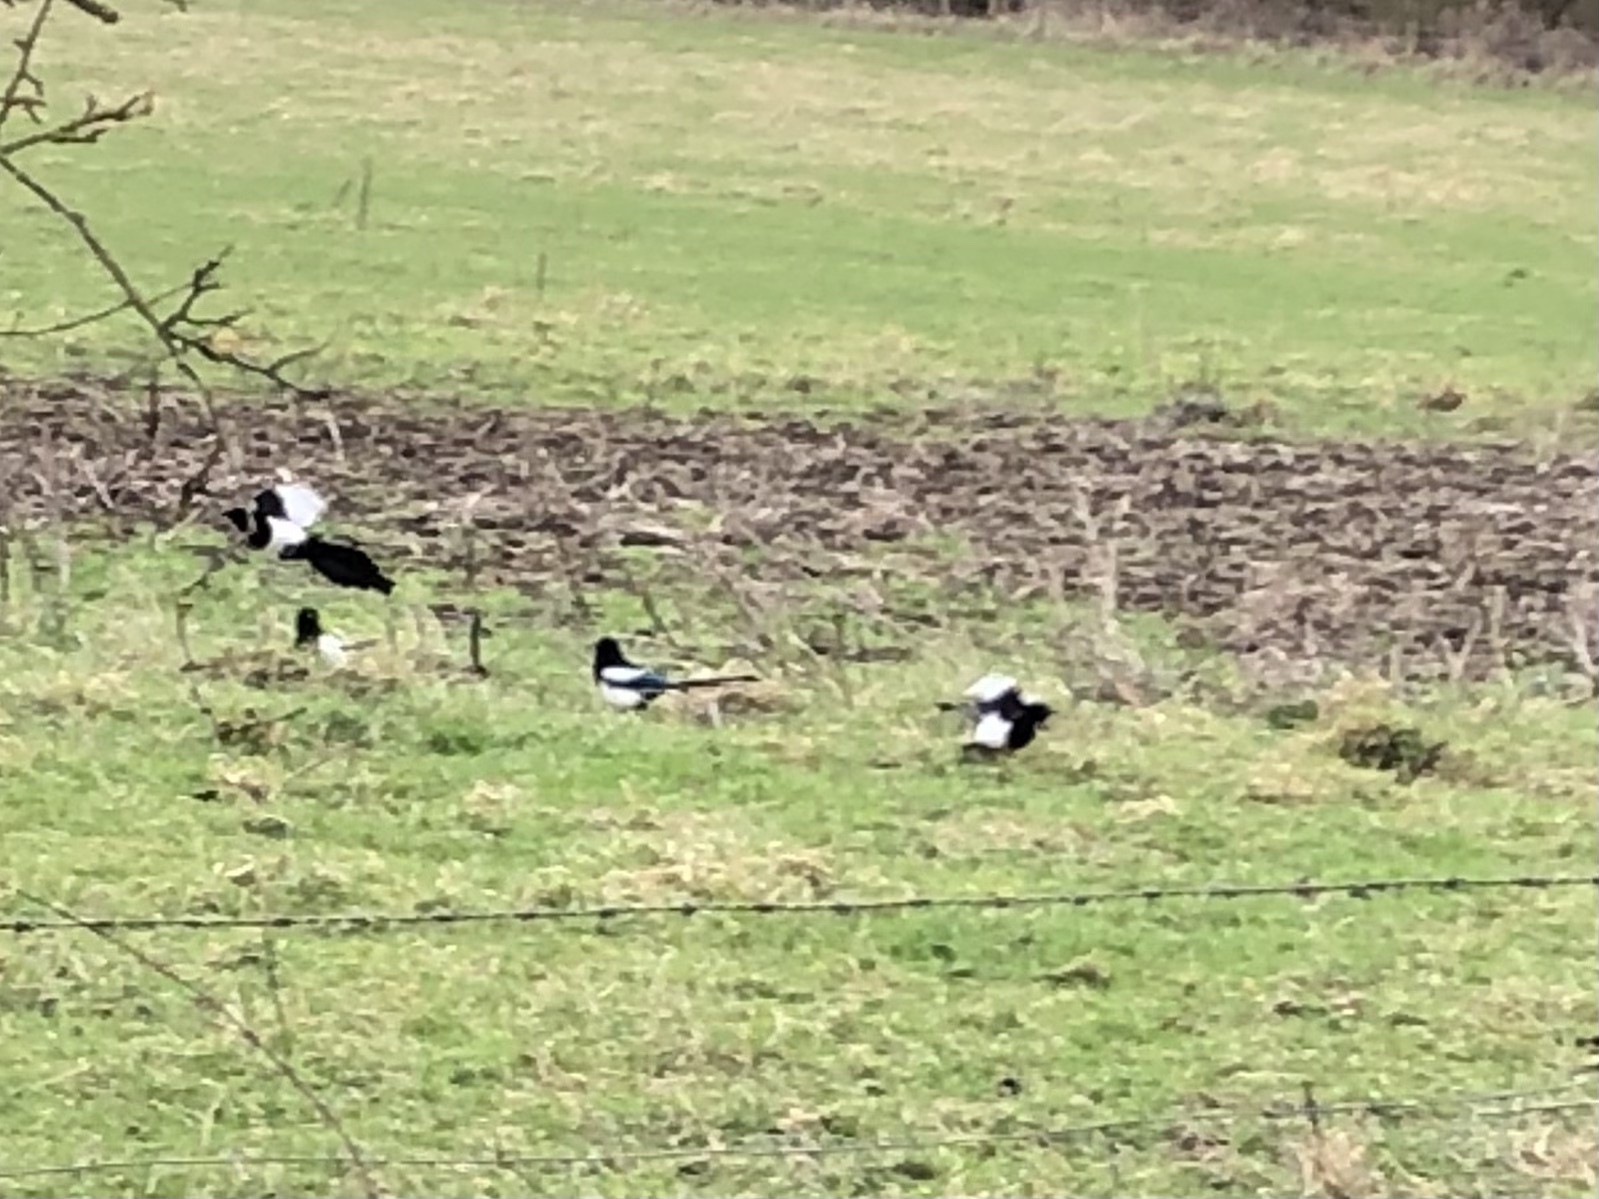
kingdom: Animalia
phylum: Chordata
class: Aves
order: Passeriformes
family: Corvidae
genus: Pica
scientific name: Pica pica
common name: Eurasian magpie
